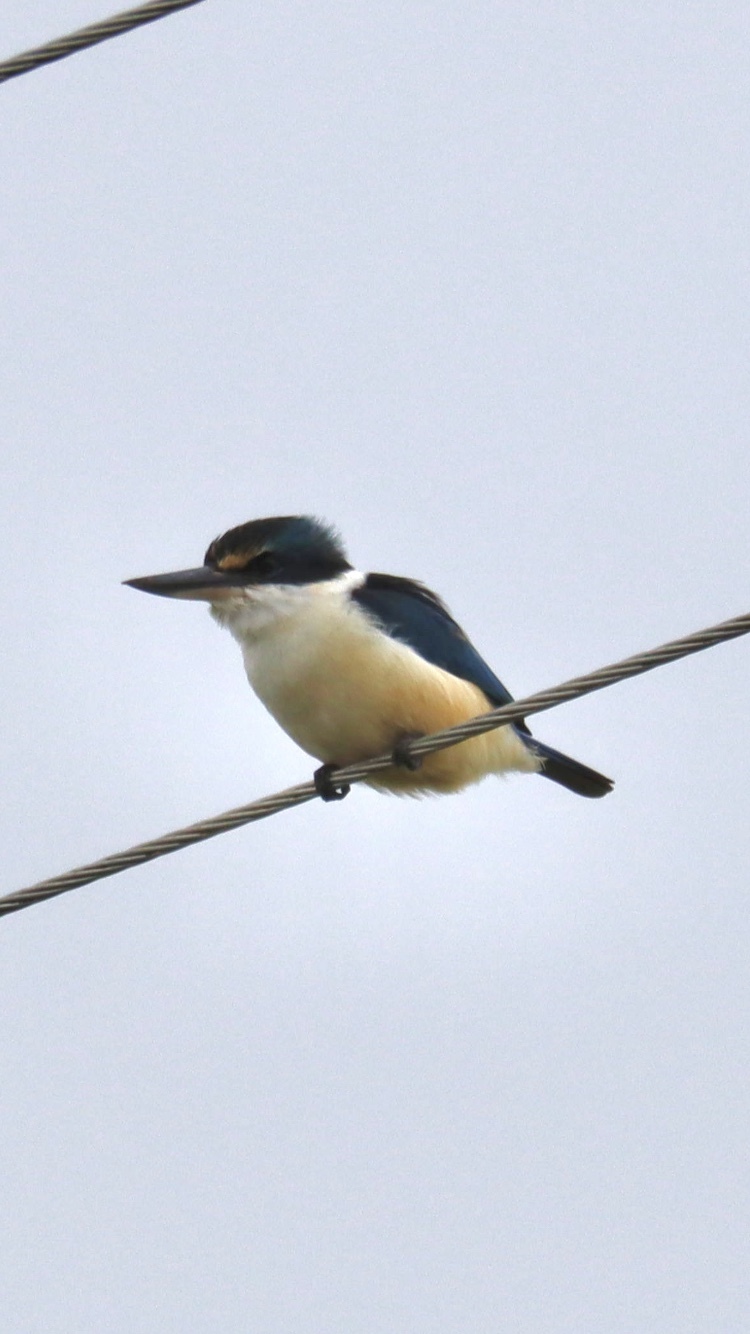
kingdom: Animalia
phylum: Chordata
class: Aves
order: Coraciiformes
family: Alcedinidae
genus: Todiramphus
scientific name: Todiramphus sanctus
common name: Sacred kingfisher
